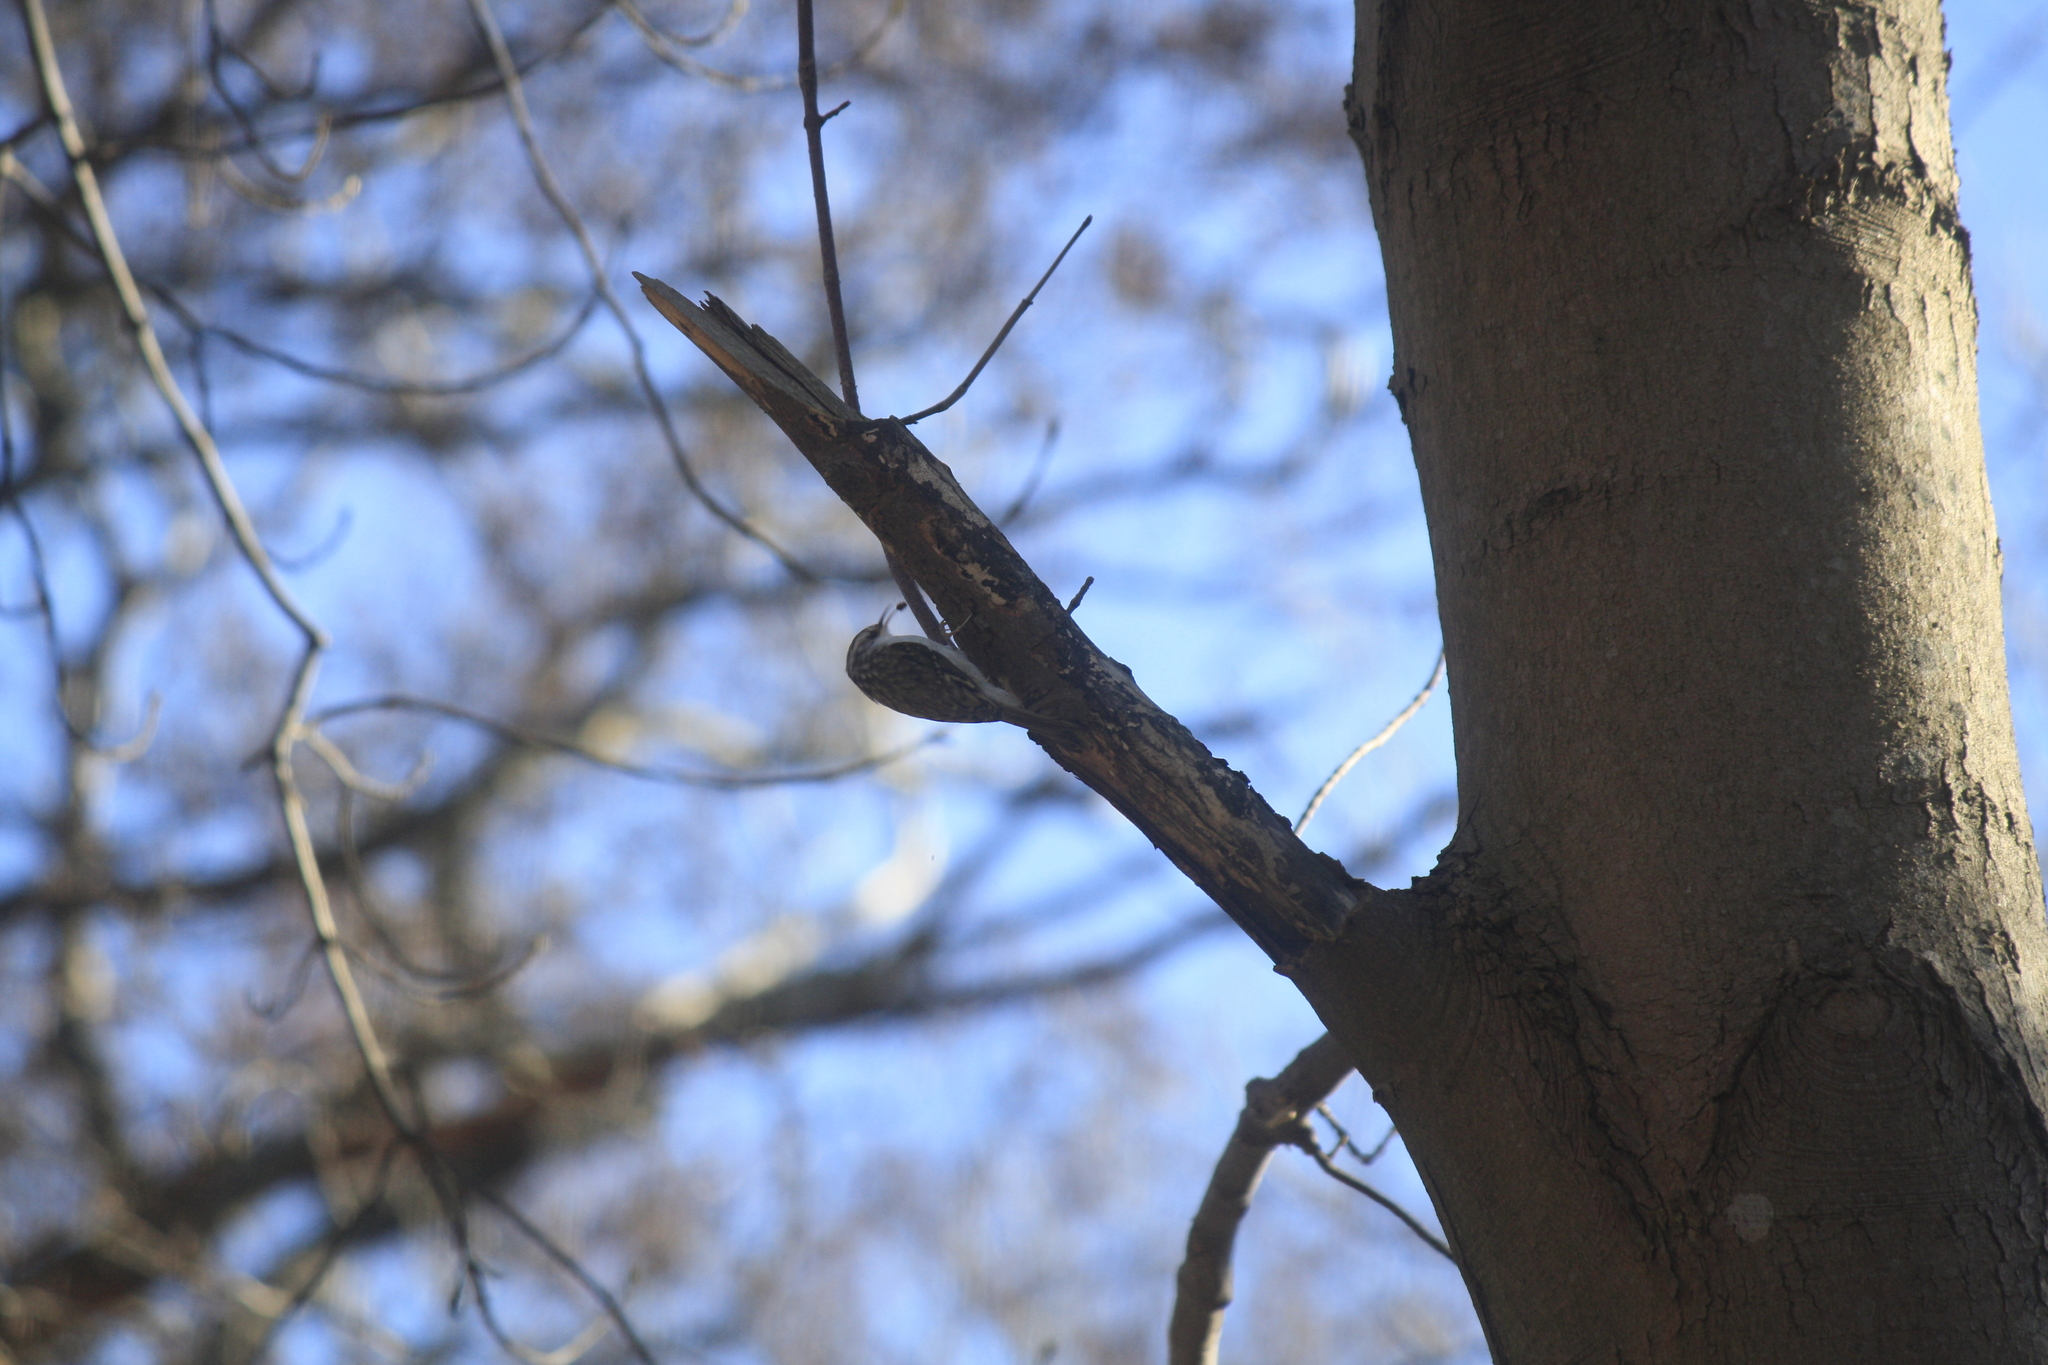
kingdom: Animalia
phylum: Chordata
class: Aves
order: Passeriformes
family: Certhiidae
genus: Certhia
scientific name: Certhia familiaris
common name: Eurasian treecreeper
